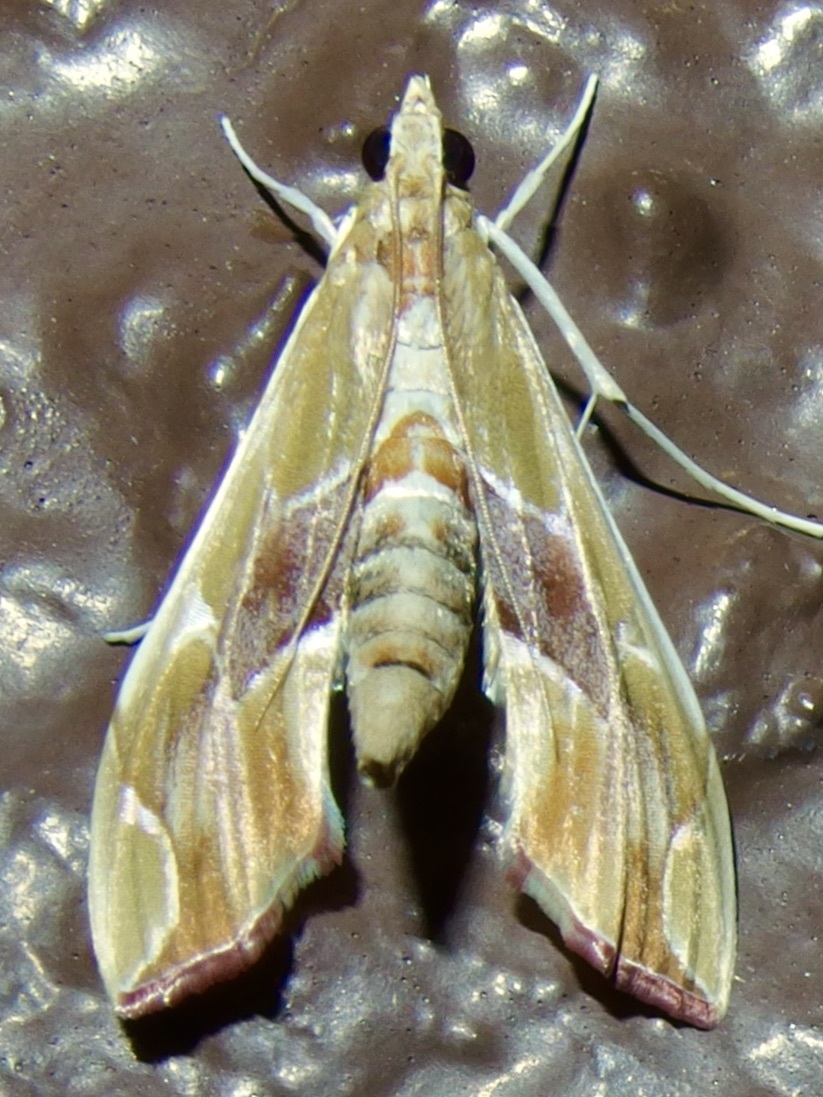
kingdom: Animalia
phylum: Arthropoda
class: Insecta
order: Lepidoptera
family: Crambidae
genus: Agathodes
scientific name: Agathodes monstralis
